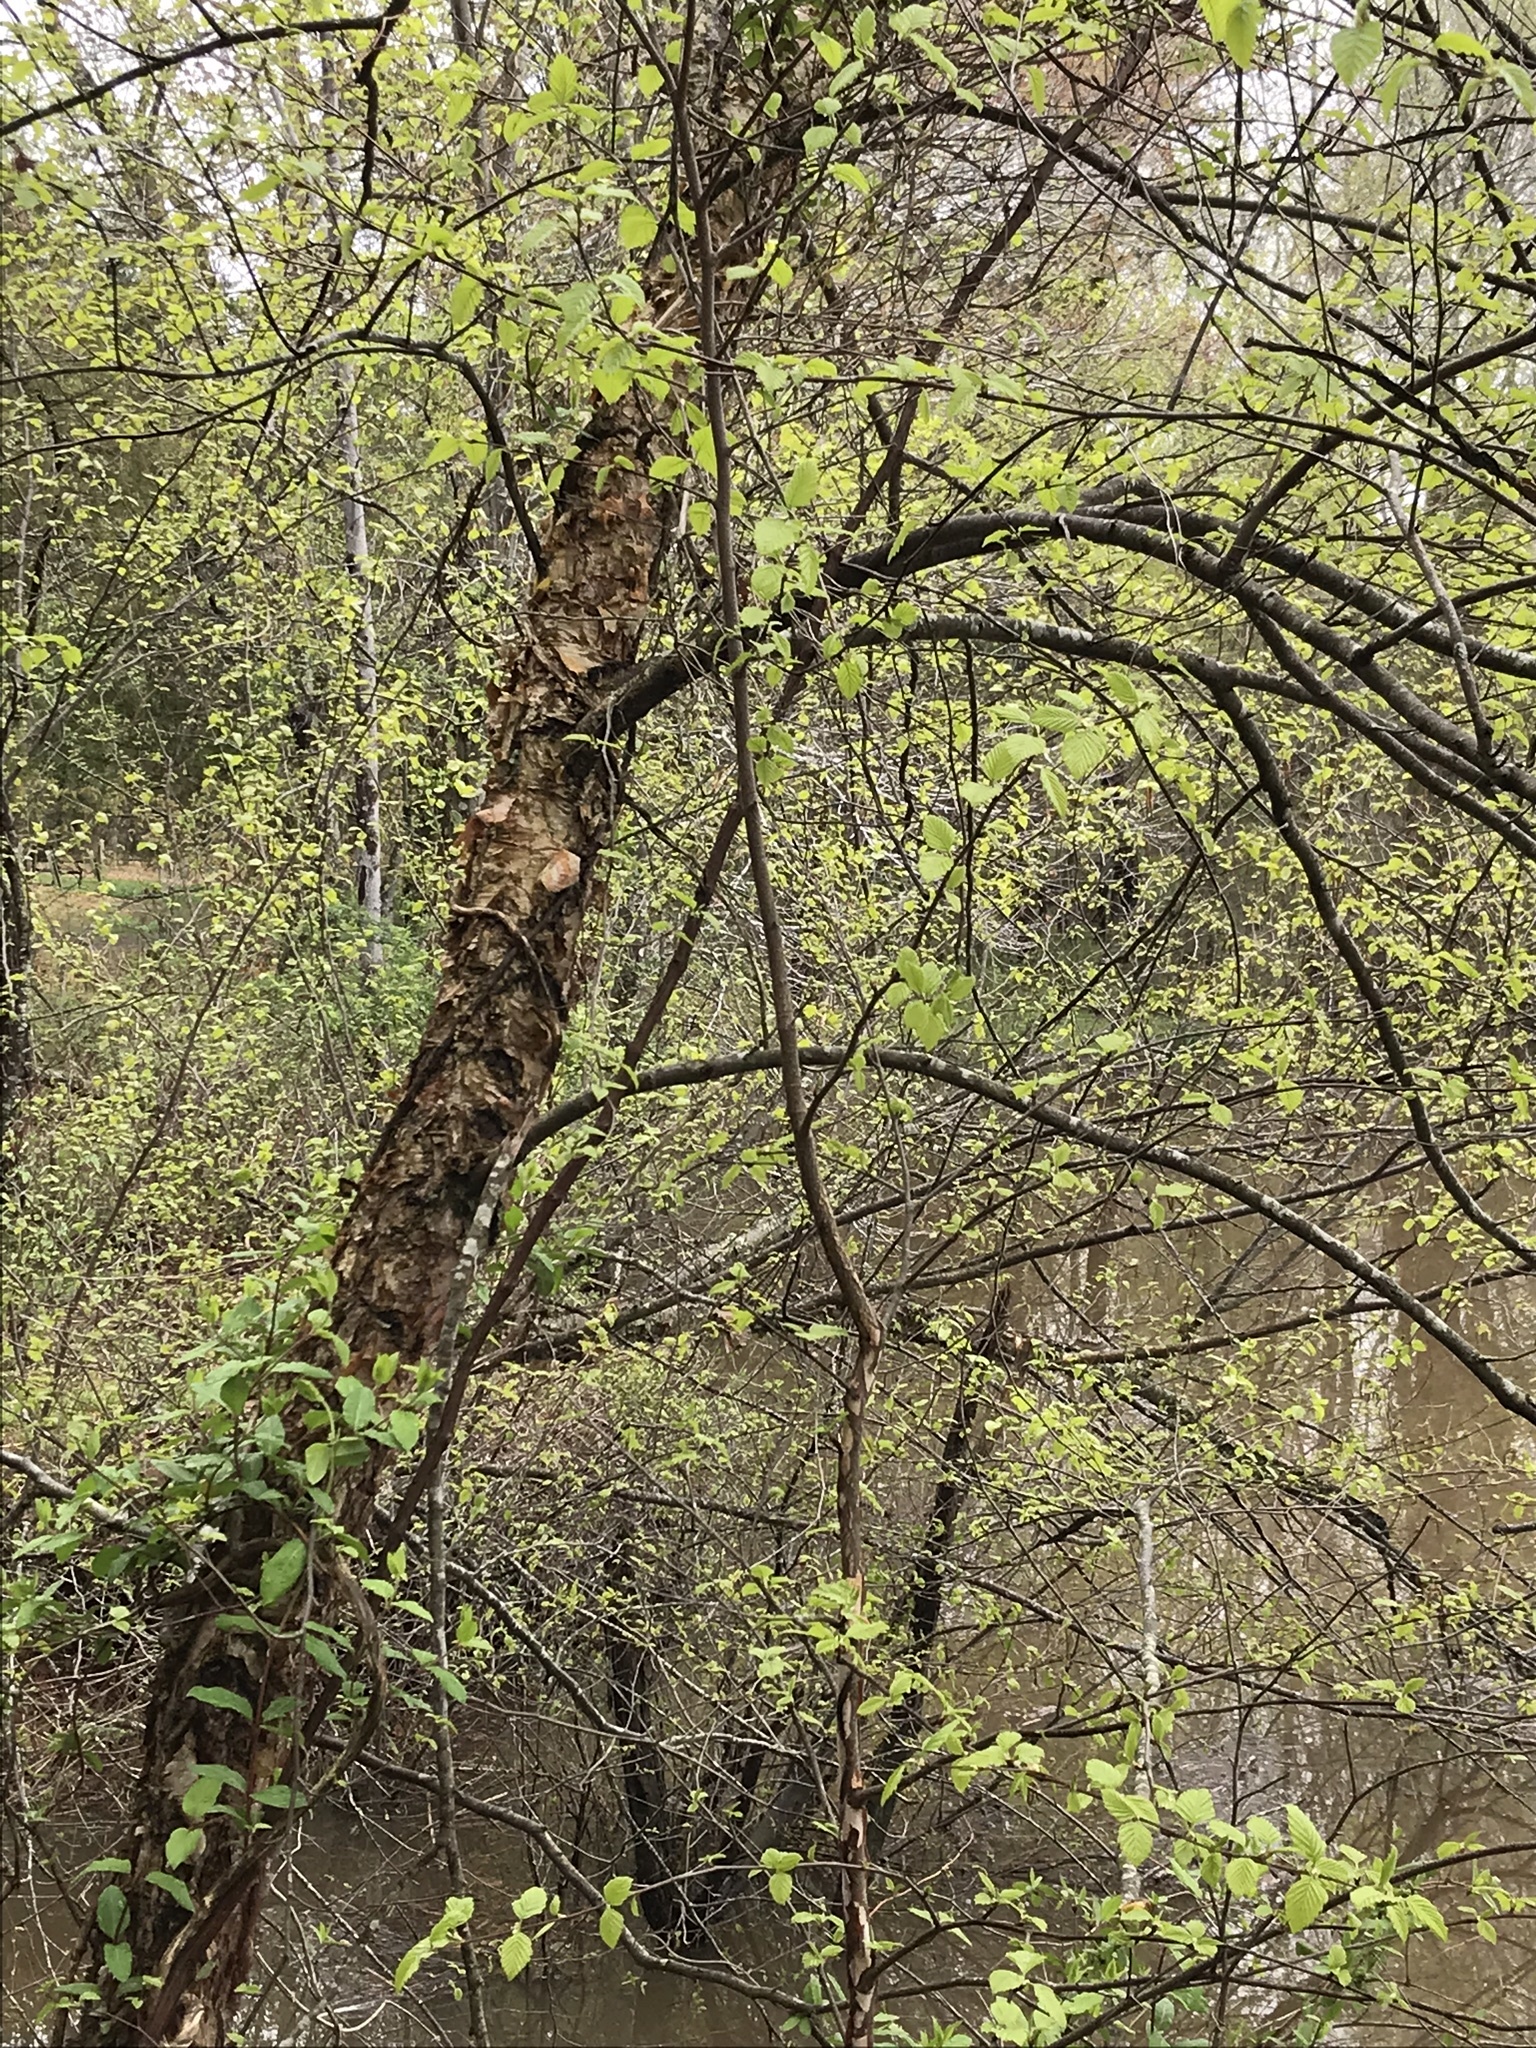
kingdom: Plantae
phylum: Tracheophyta
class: Magnoliopsida
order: Fagales
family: Betulaceae
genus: Betula
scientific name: Betula nigra
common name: Black birch
